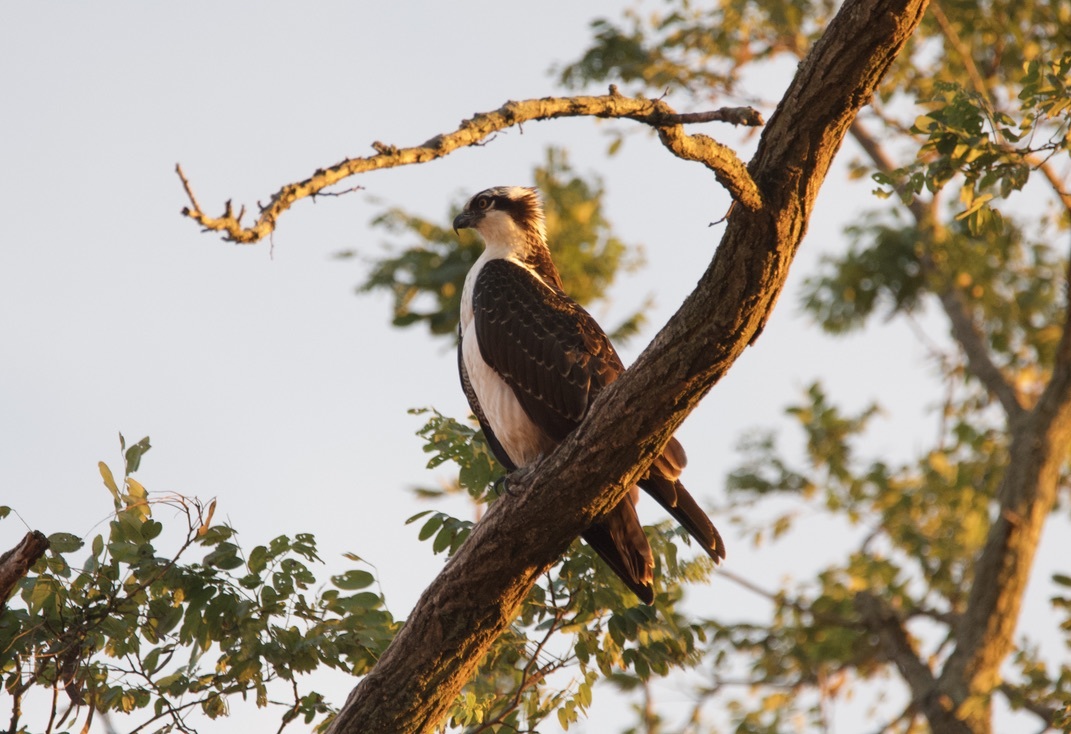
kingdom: Animalia
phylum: Chordata
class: Aves
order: Accipitriformes
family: Pandionidae
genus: Pandion
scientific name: Pandion haliaetus
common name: Osprey
